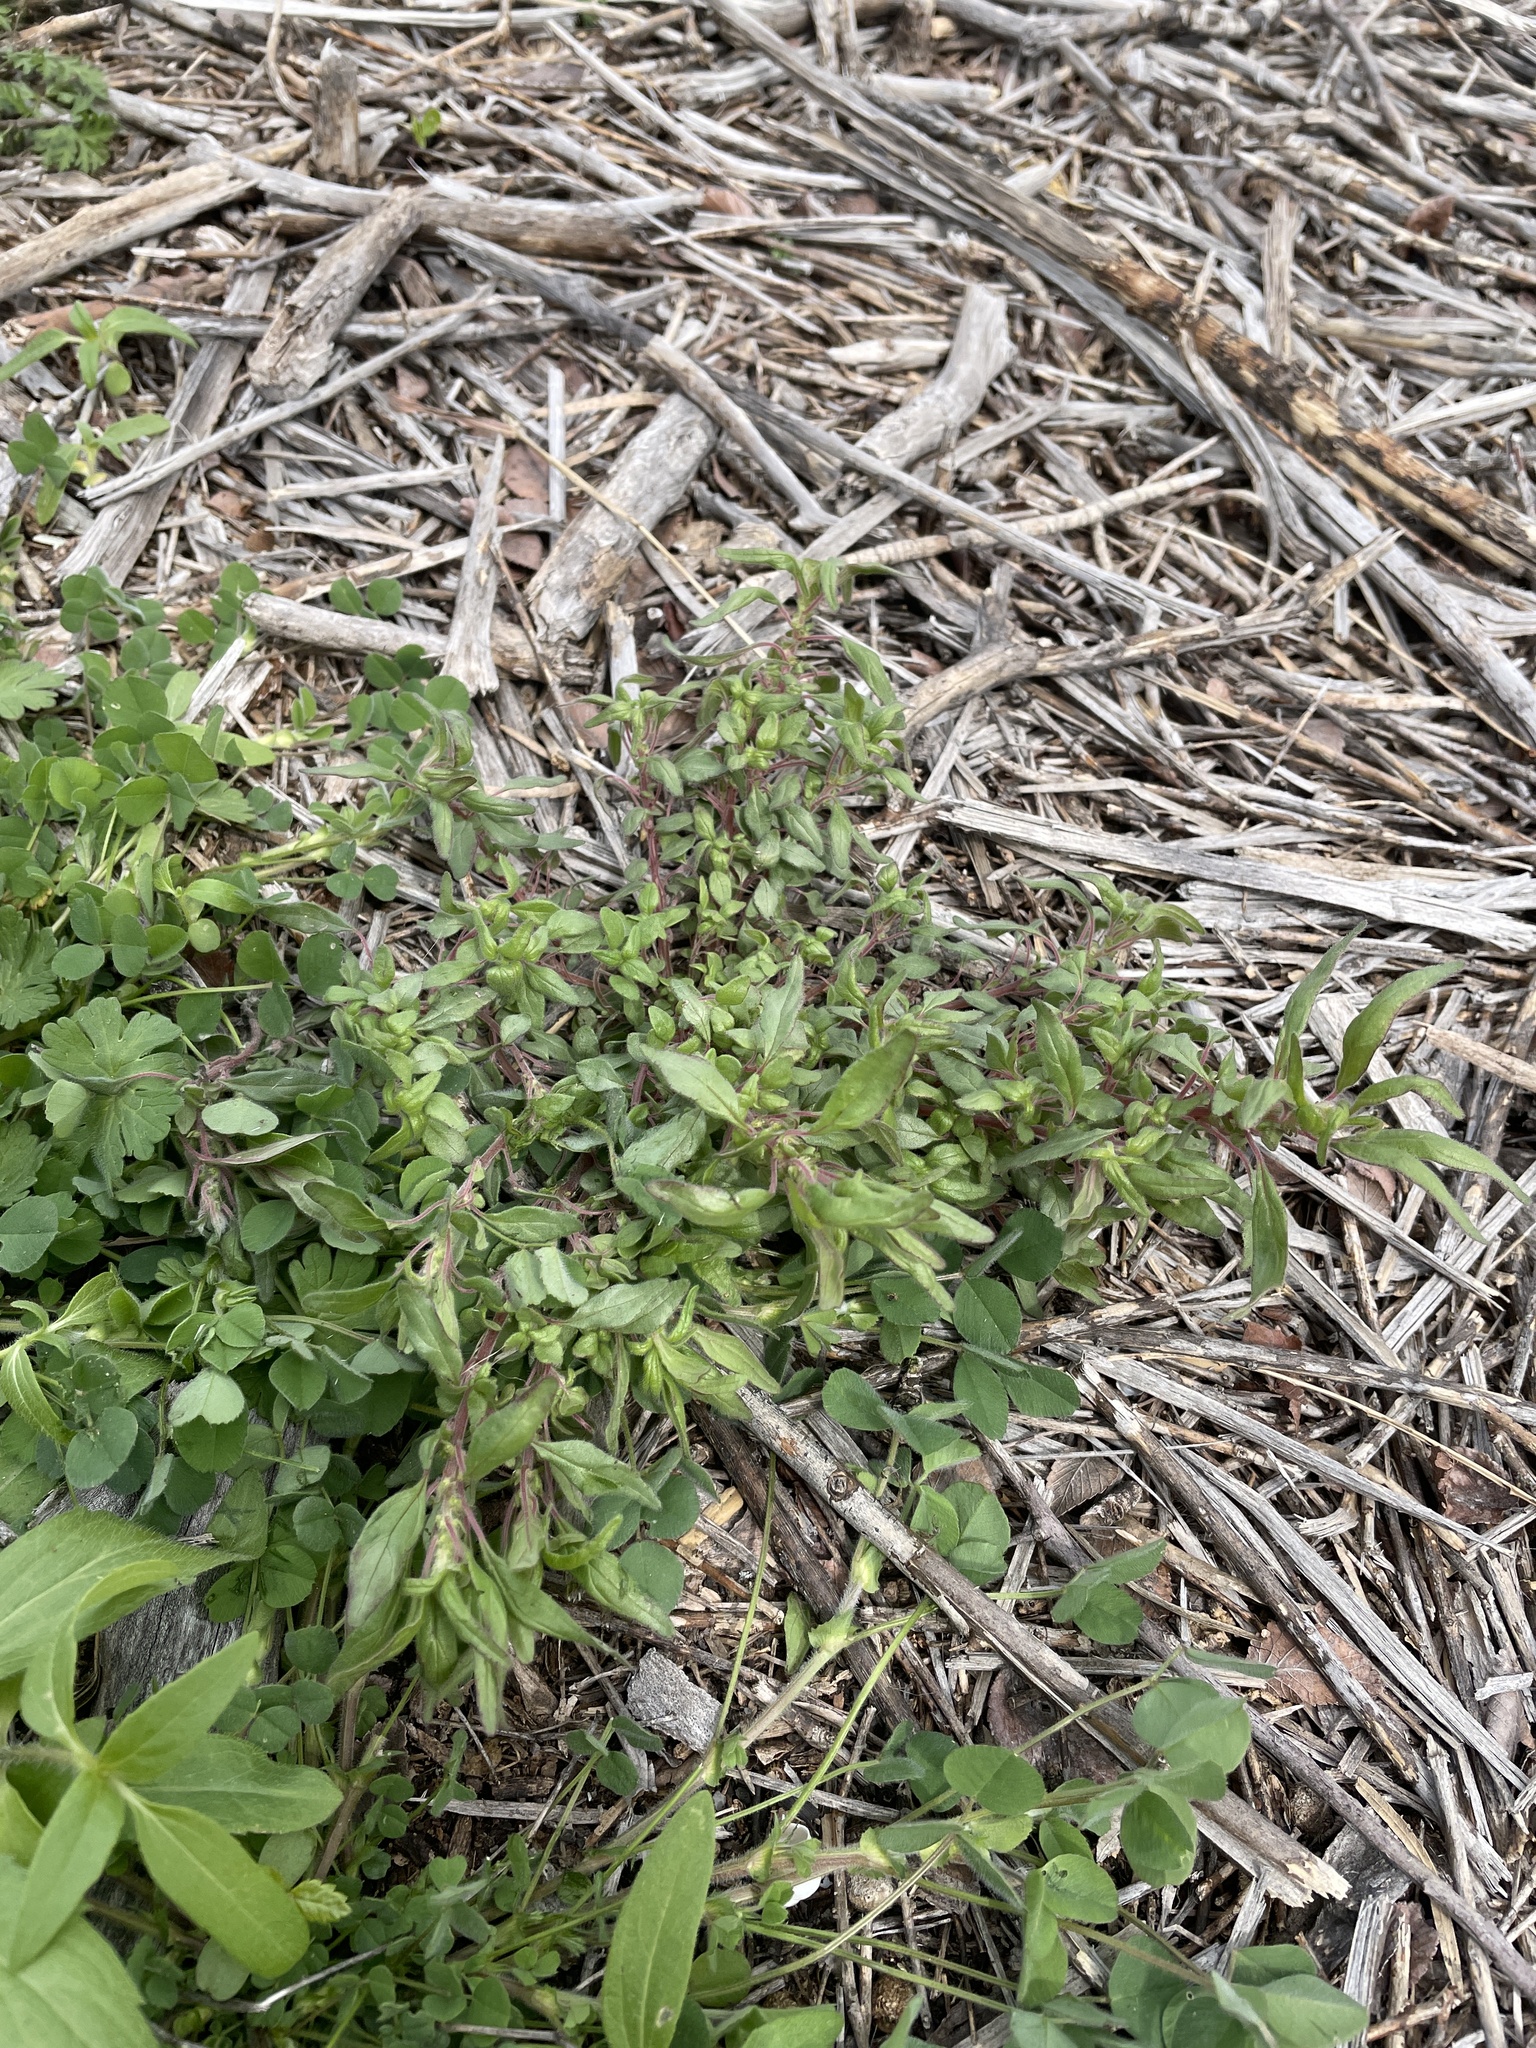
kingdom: Plantae
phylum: Tracheophyta
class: Magnoliopsida
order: Rosales
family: Urticaceae
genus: Parietaria
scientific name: Parietaria pensylvanica
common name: Pennsylvania pellitory
